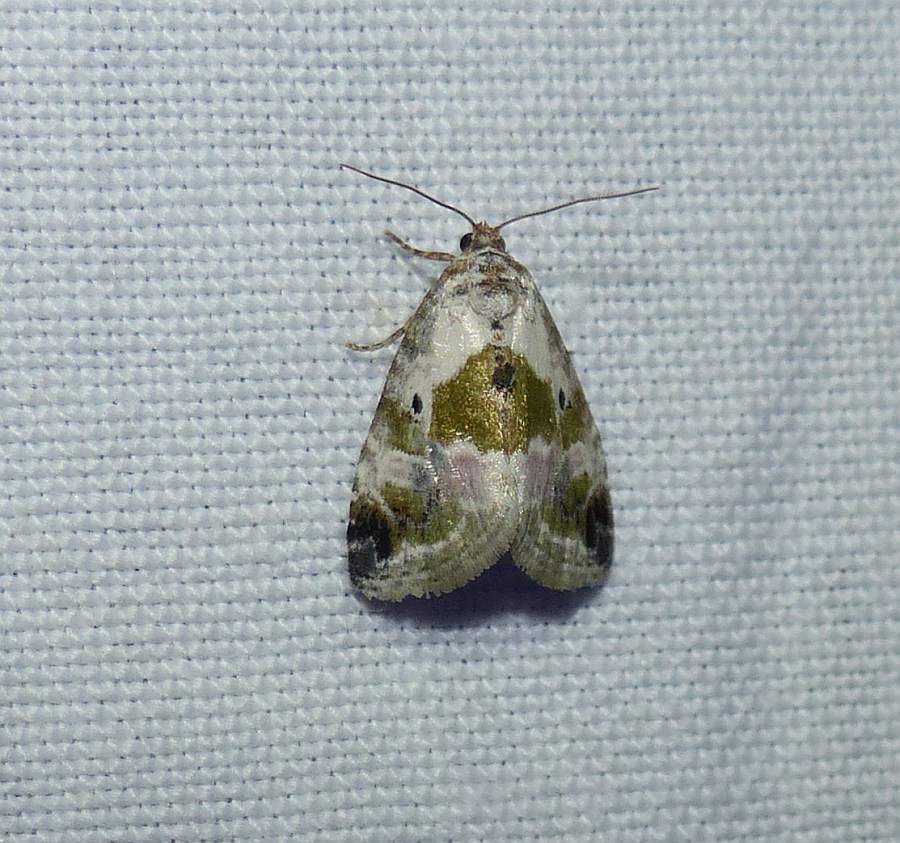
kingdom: Animalia
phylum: Arthropoda
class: Insecta
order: Lepidoptera
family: Noctuidae
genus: Maliattha
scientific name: Maliattha synochitis
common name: Black-dotted glyph
